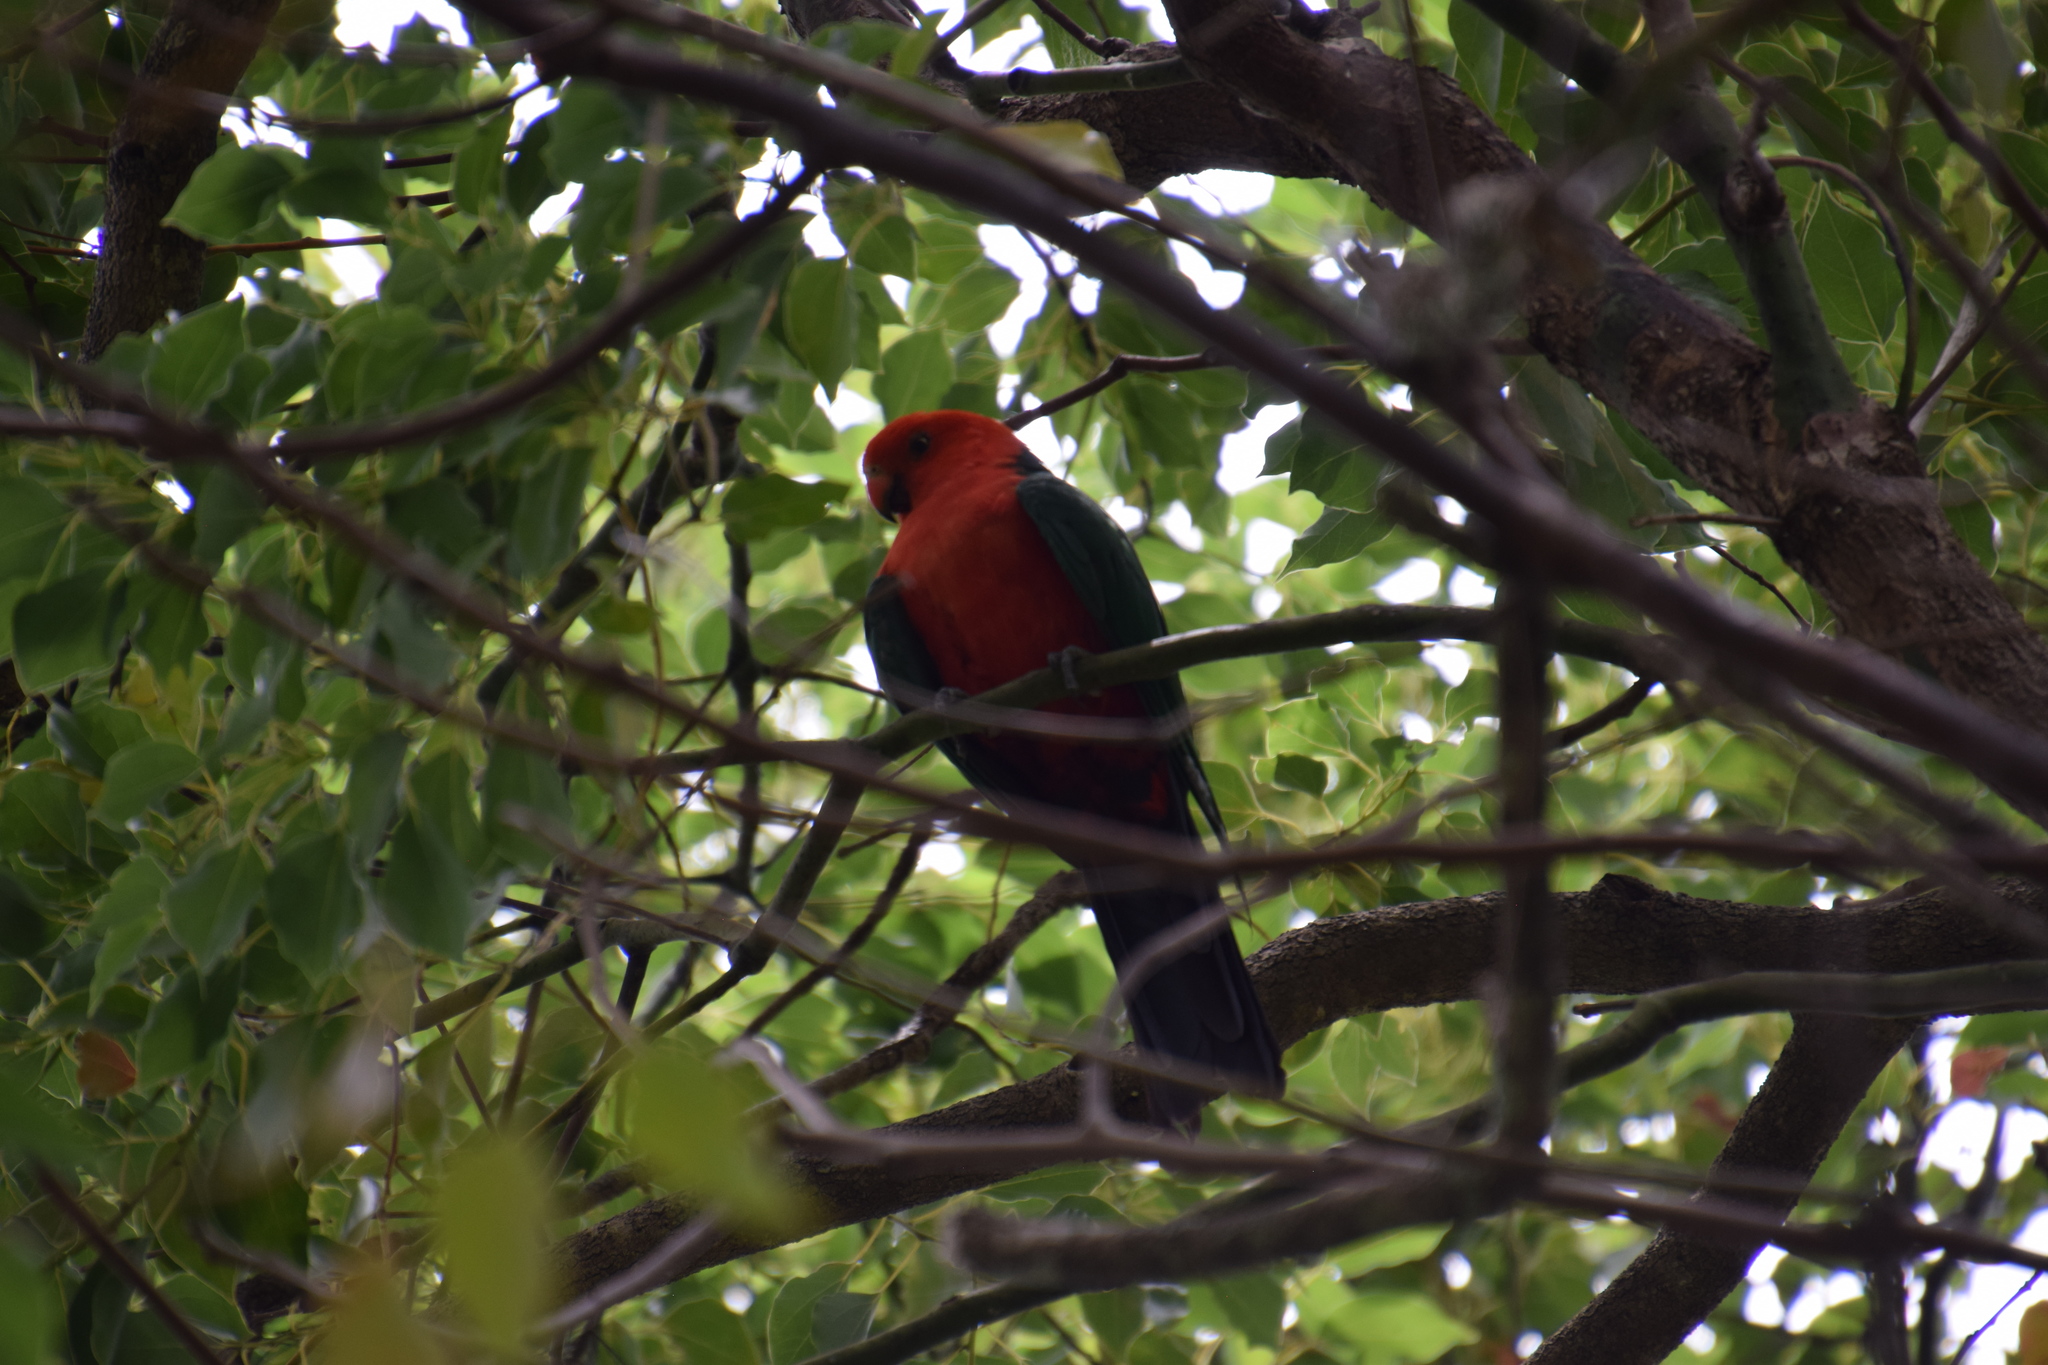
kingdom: Animalia
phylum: Chordata
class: Aves
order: Psittaciformes
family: Psittacidae
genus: Alisterus
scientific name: Alisterus scapularis
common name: Australian king parrot
